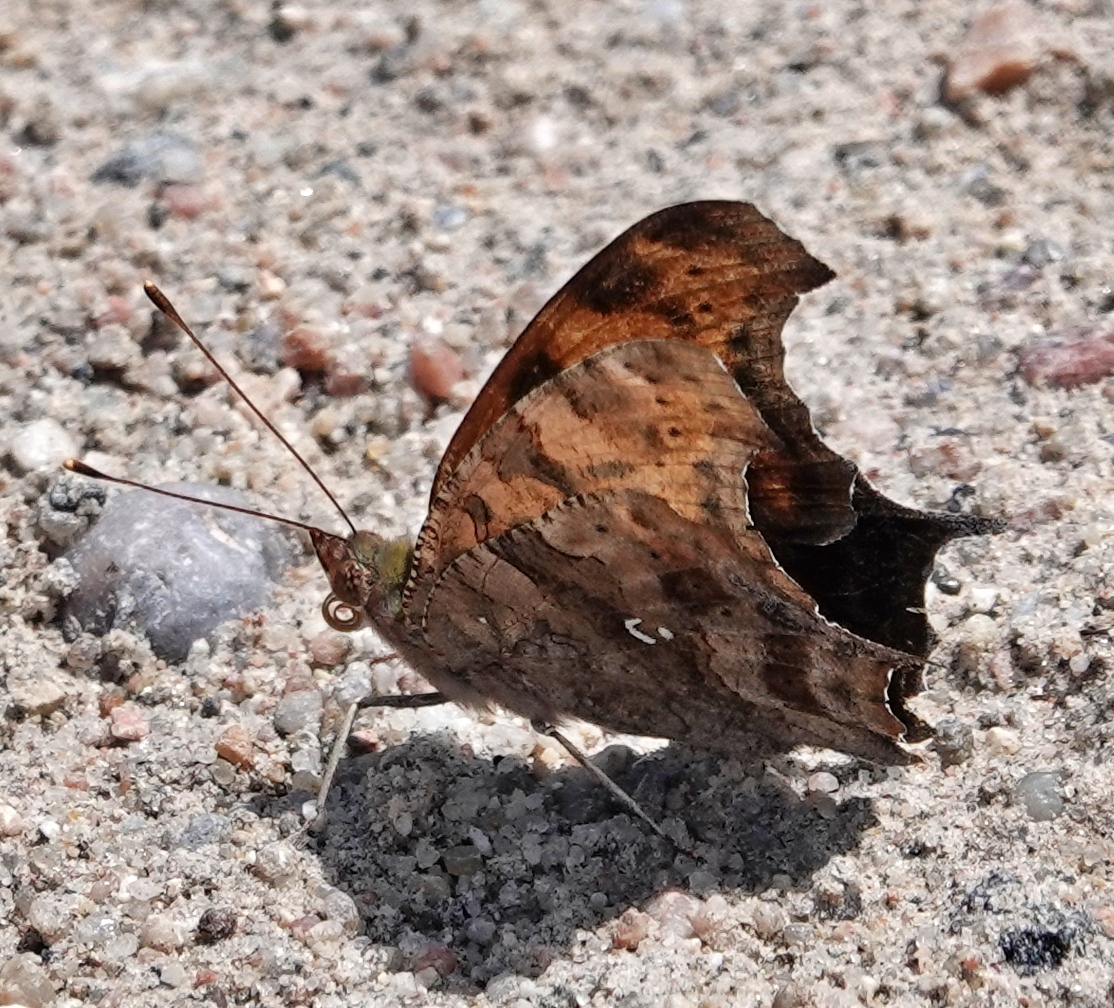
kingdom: Animalia
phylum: Arthropoda
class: Insecta
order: Lepidoptera
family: Nymphalidae
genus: Polygonia
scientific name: Polygonia interrogationis
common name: Question mark
